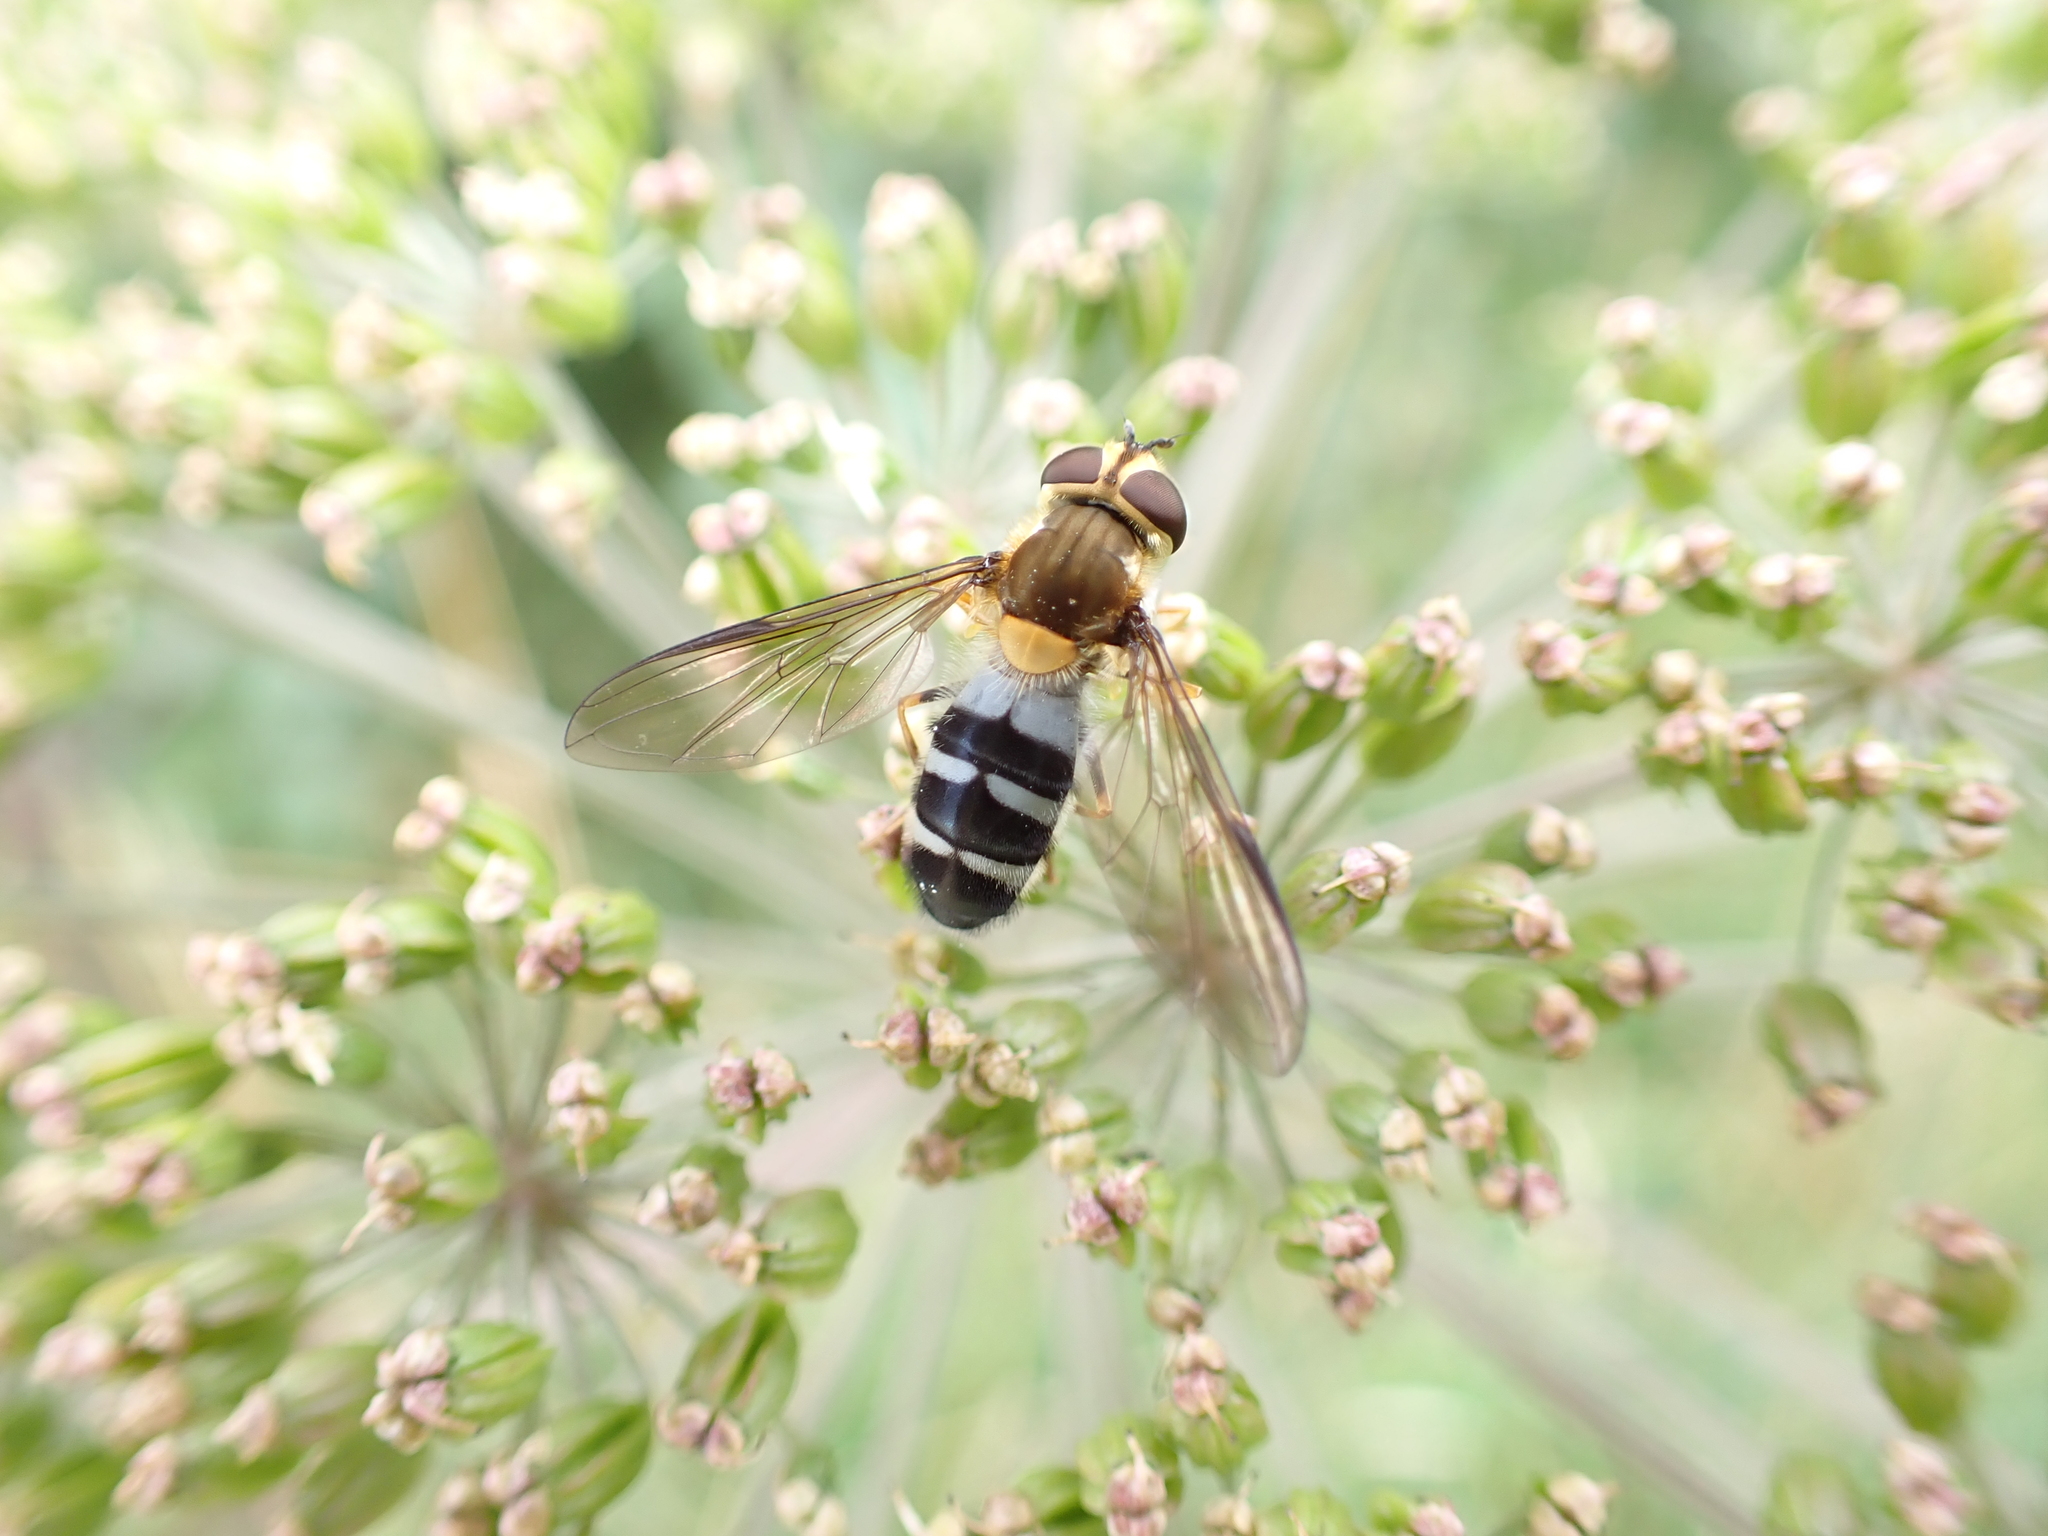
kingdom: Animalia
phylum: Arthropoda
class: Insecta
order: Diptera
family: Syrphidae
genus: Leucozona
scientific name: Leucozona glaucia
